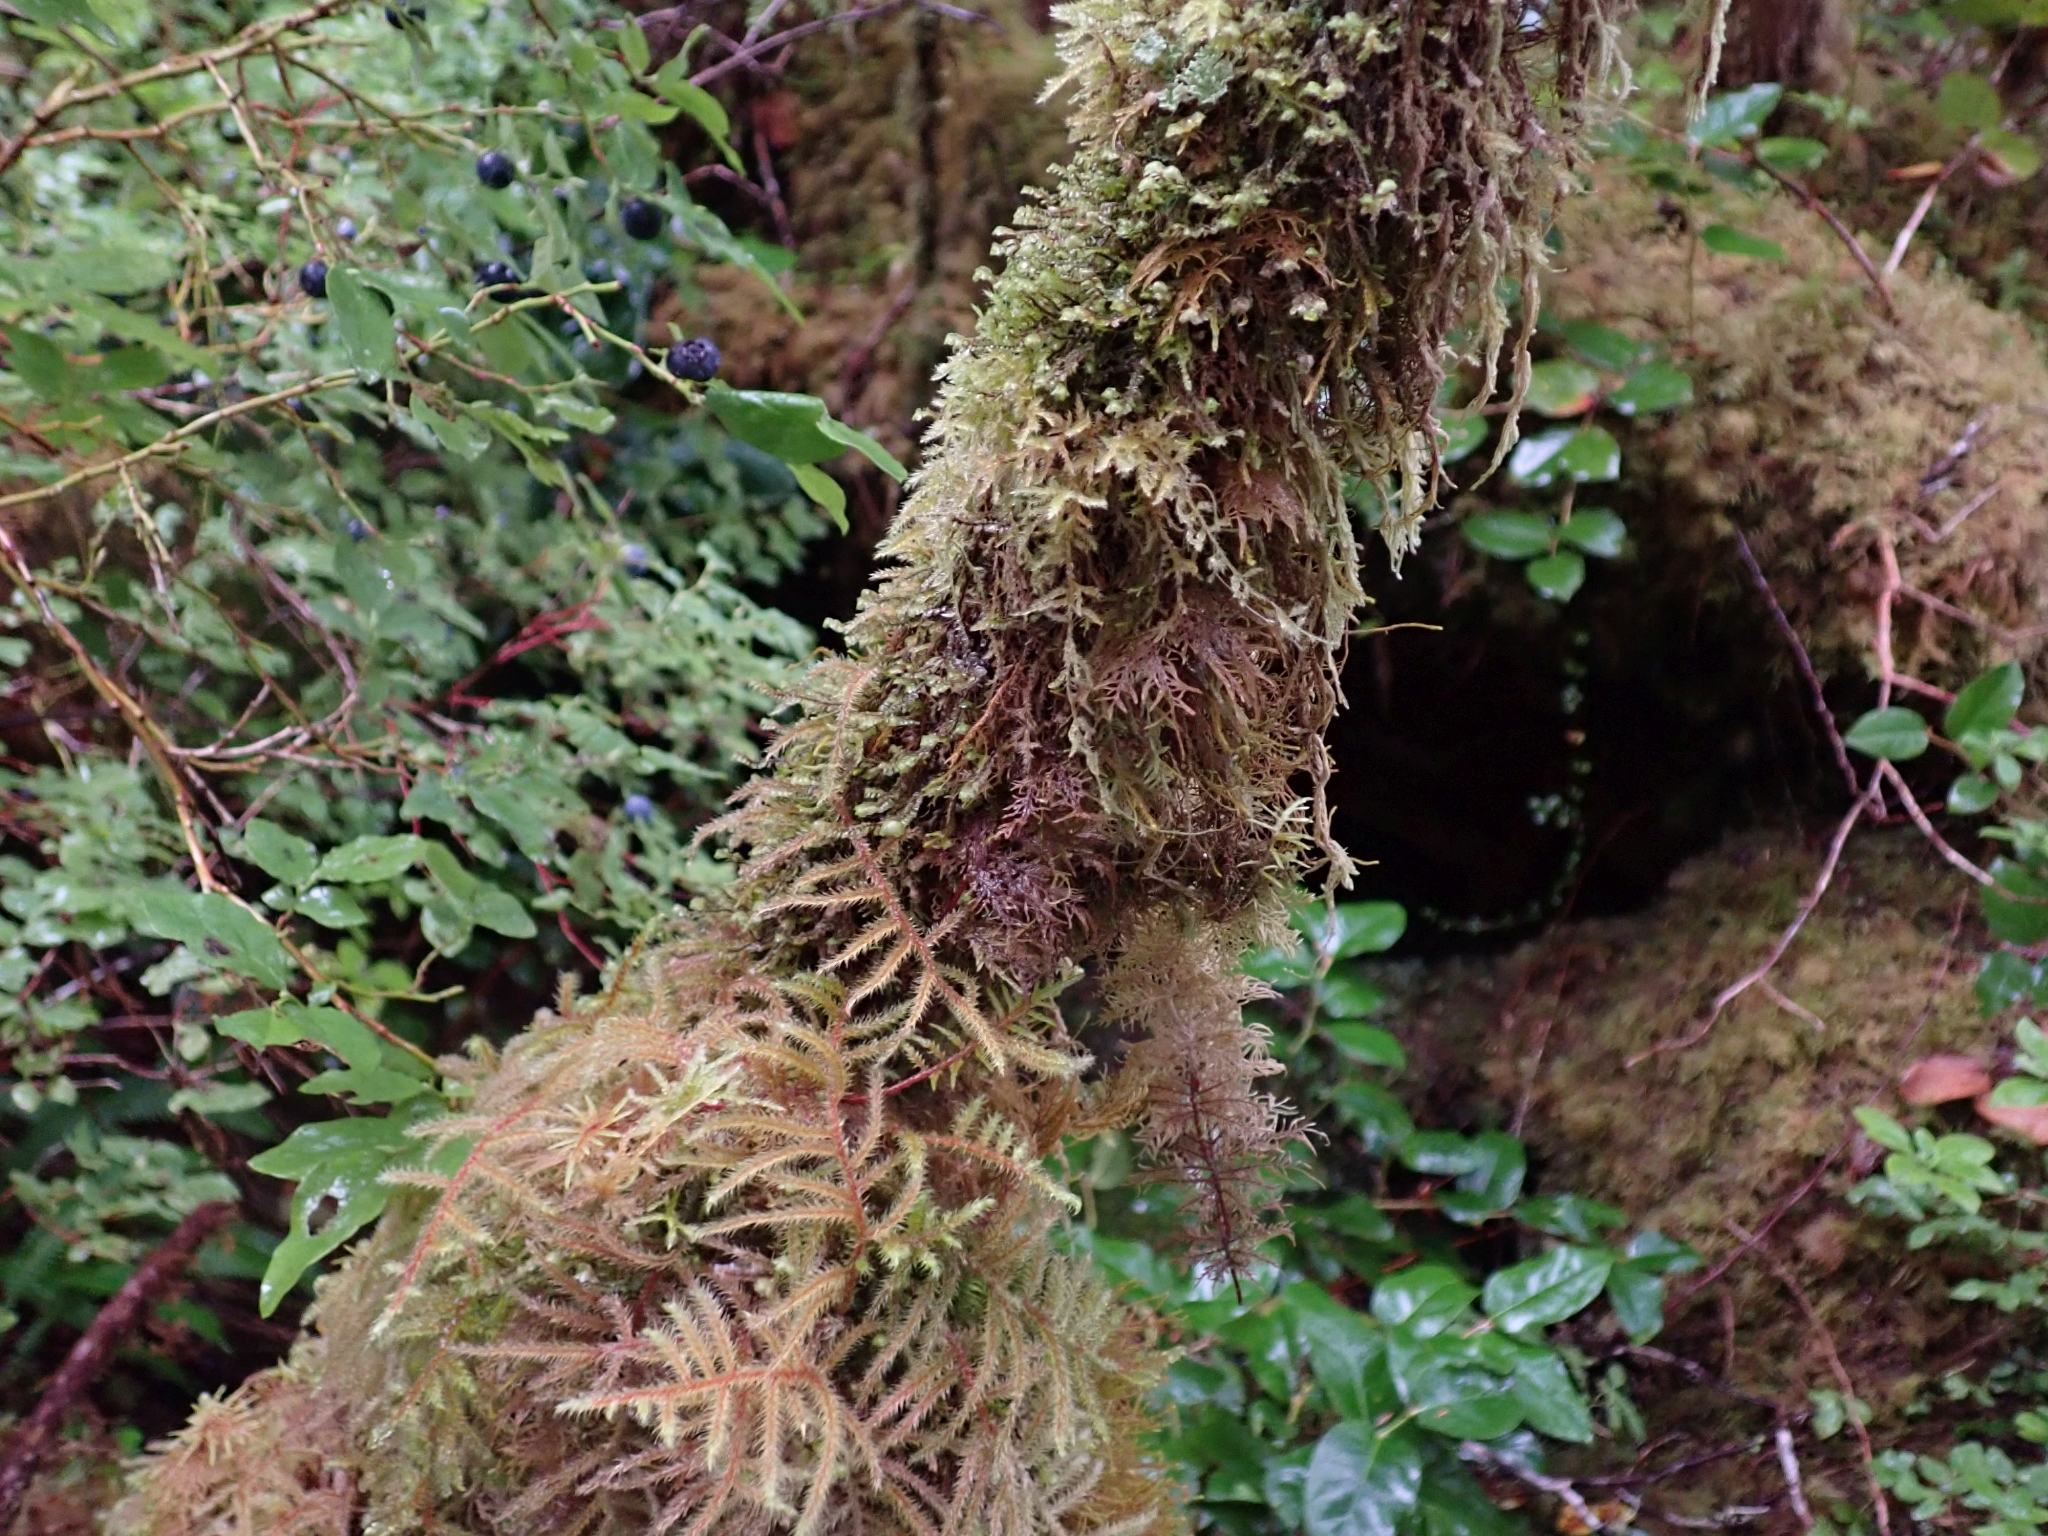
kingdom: Plantae
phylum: Bryophyta
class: Bryopsida
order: Hypnales
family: Hylocomiaceae
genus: Rhytidiadelphus
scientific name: Rhytidiadelphus loreus
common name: Lanky moss
